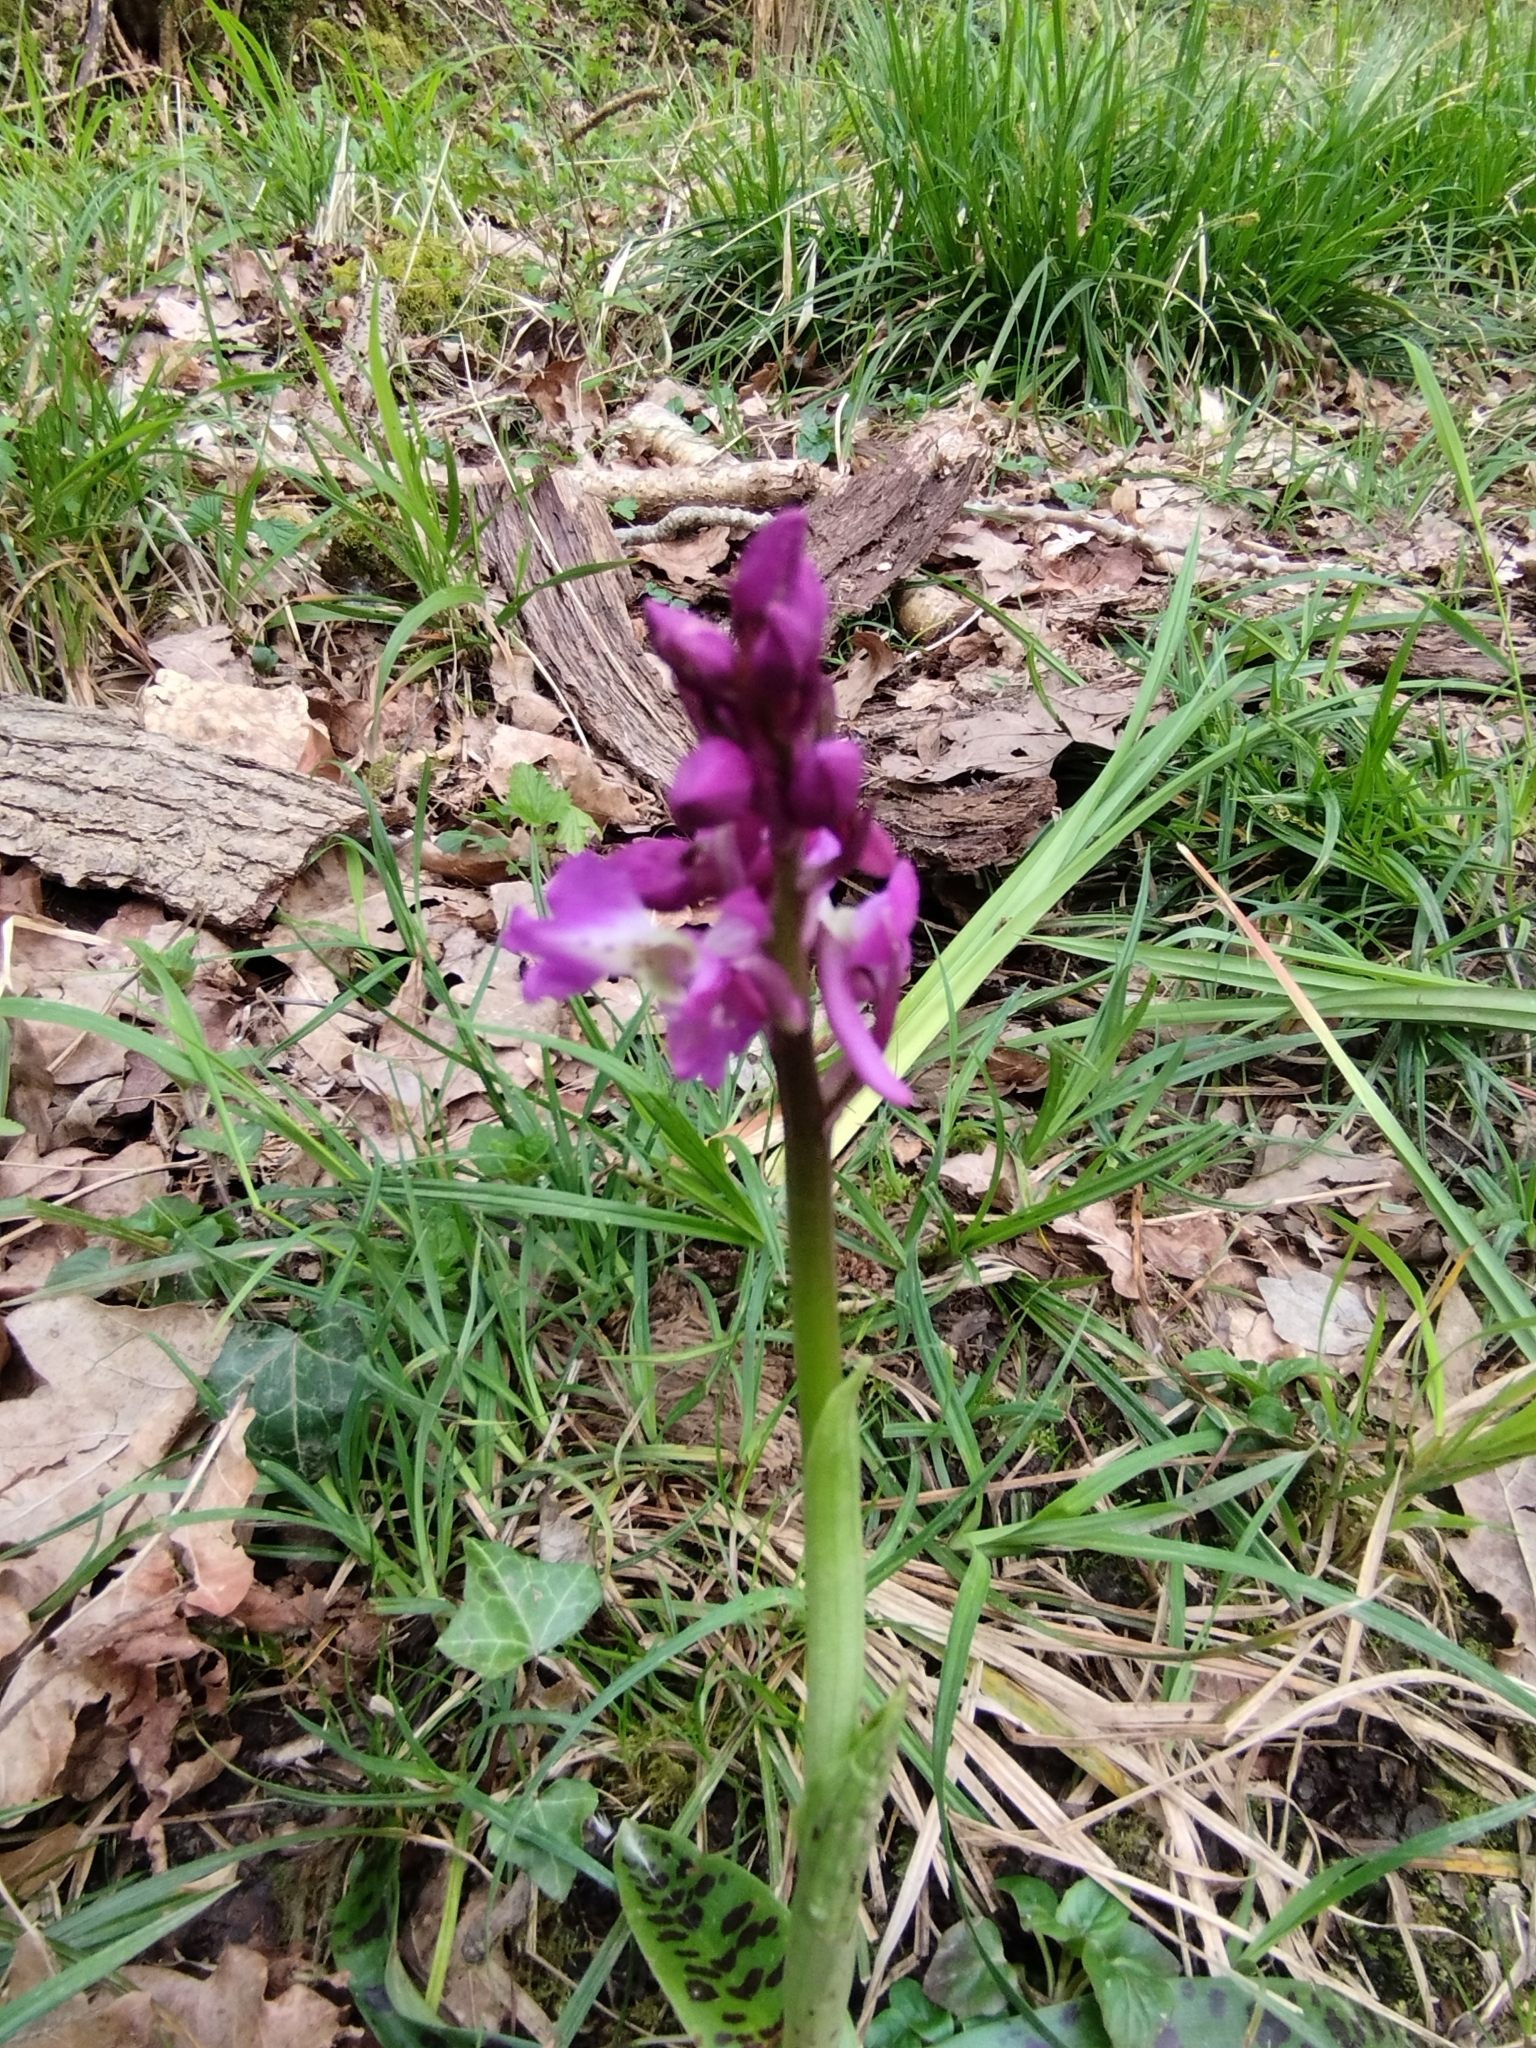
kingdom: Plantae
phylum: Tracheophyta
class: Liliopsida
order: Asparagales
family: Orchidaceae
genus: Orchis
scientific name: Orchis mascula
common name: Early-purple orchid
